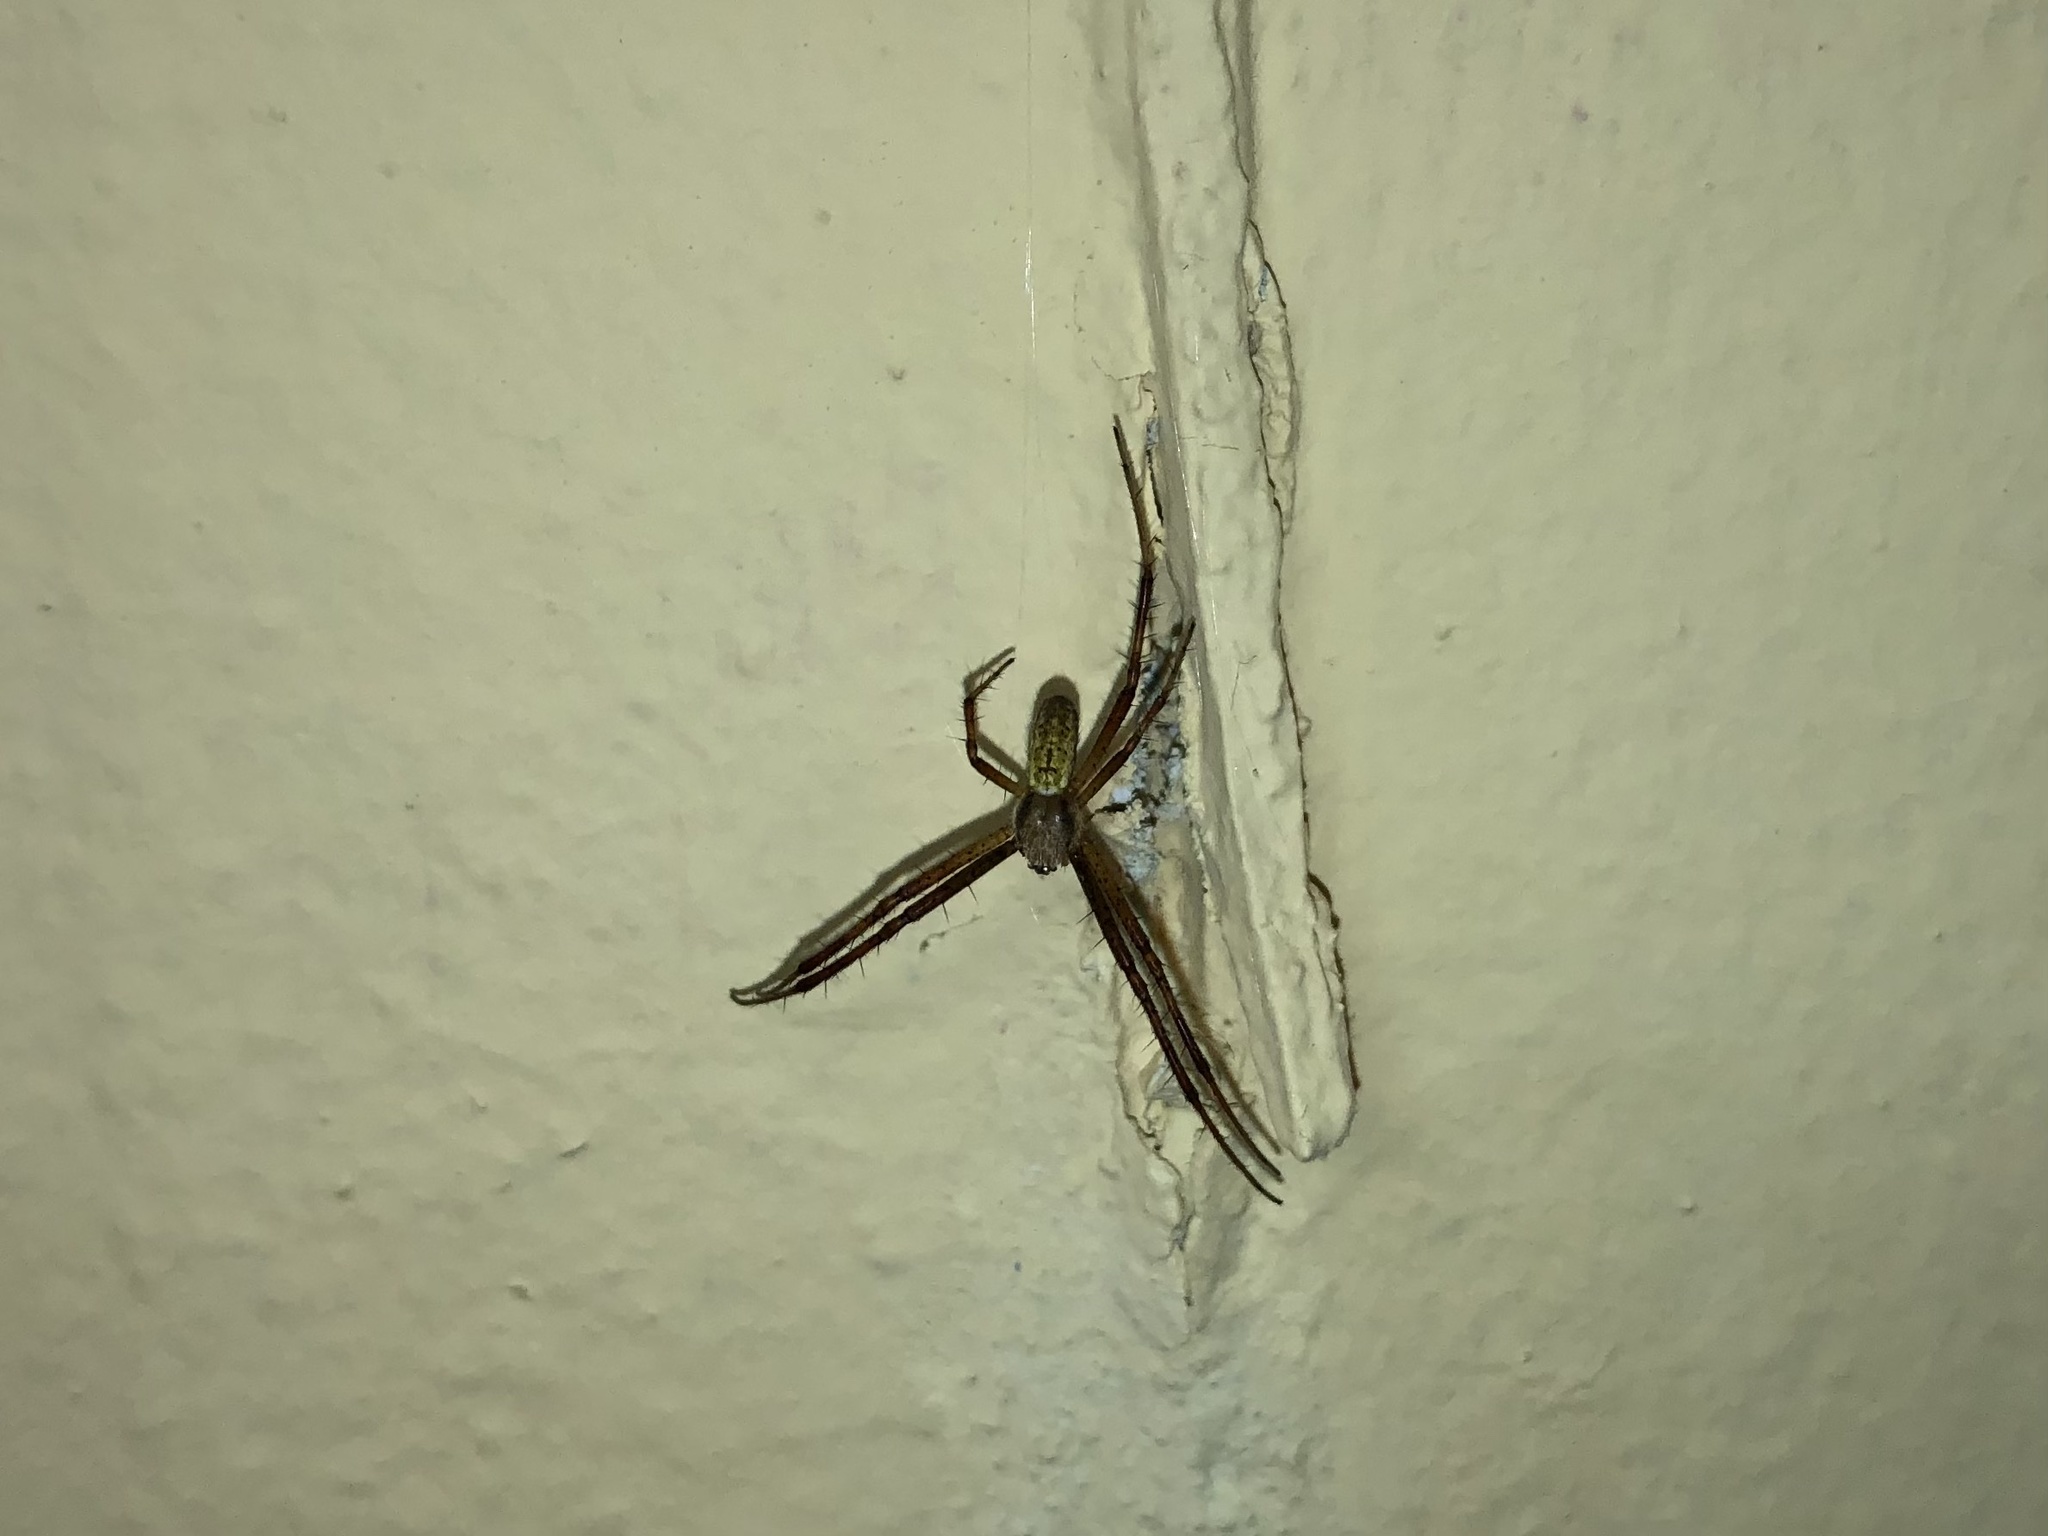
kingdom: Animalia
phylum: Arthropoda
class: Arachnida
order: Araneae
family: Araneidae
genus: Argiope
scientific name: Argiope bruennichi
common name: Wasp spider
